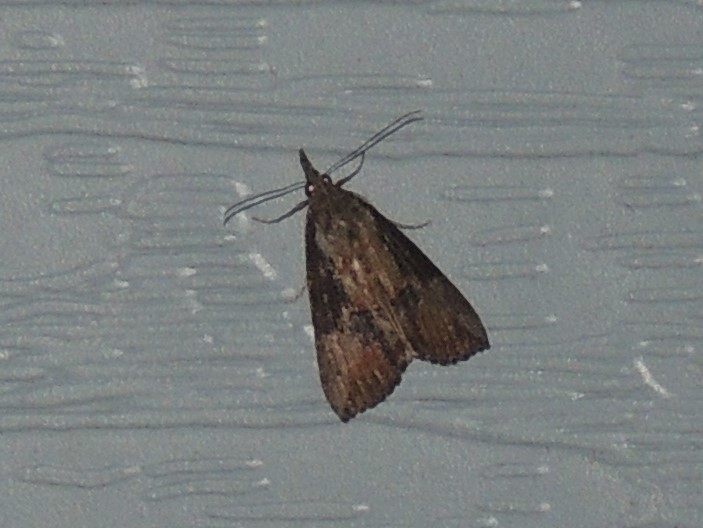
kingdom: Animalia
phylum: Arthropoda
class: Insecta
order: Lepidoptera
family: Erebidae
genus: Hypena
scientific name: Hypena scabra
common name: Green cloverworm
